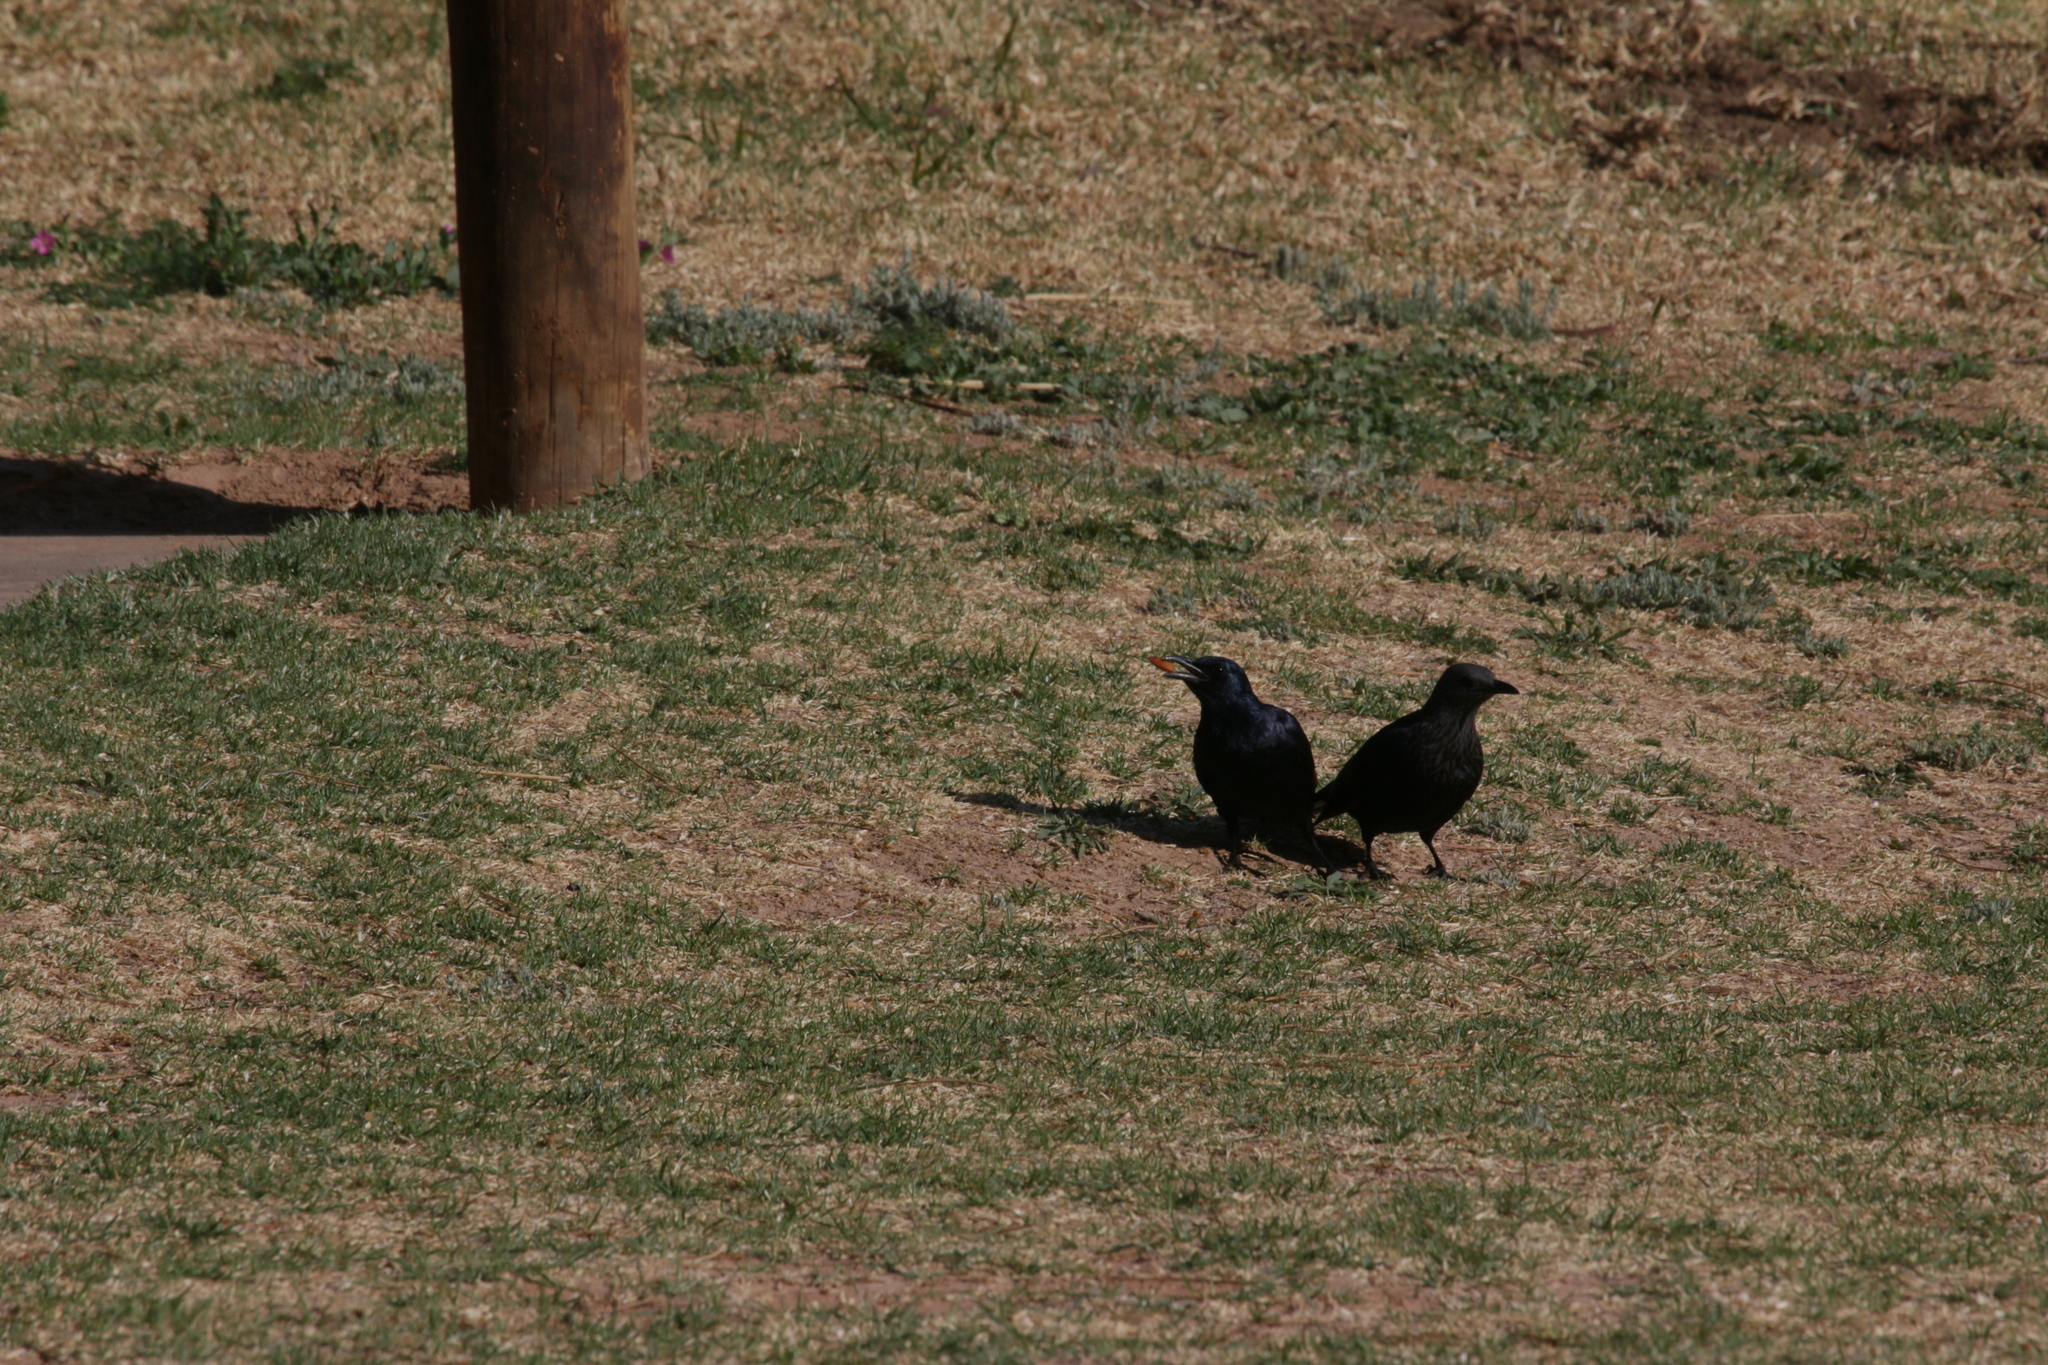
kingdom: Animalia
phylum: Chordata
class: Aves
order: Passeriformes
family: Sturnidae
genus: Onychognathus
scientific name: Onychognathus morio
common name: Red-winged starling
